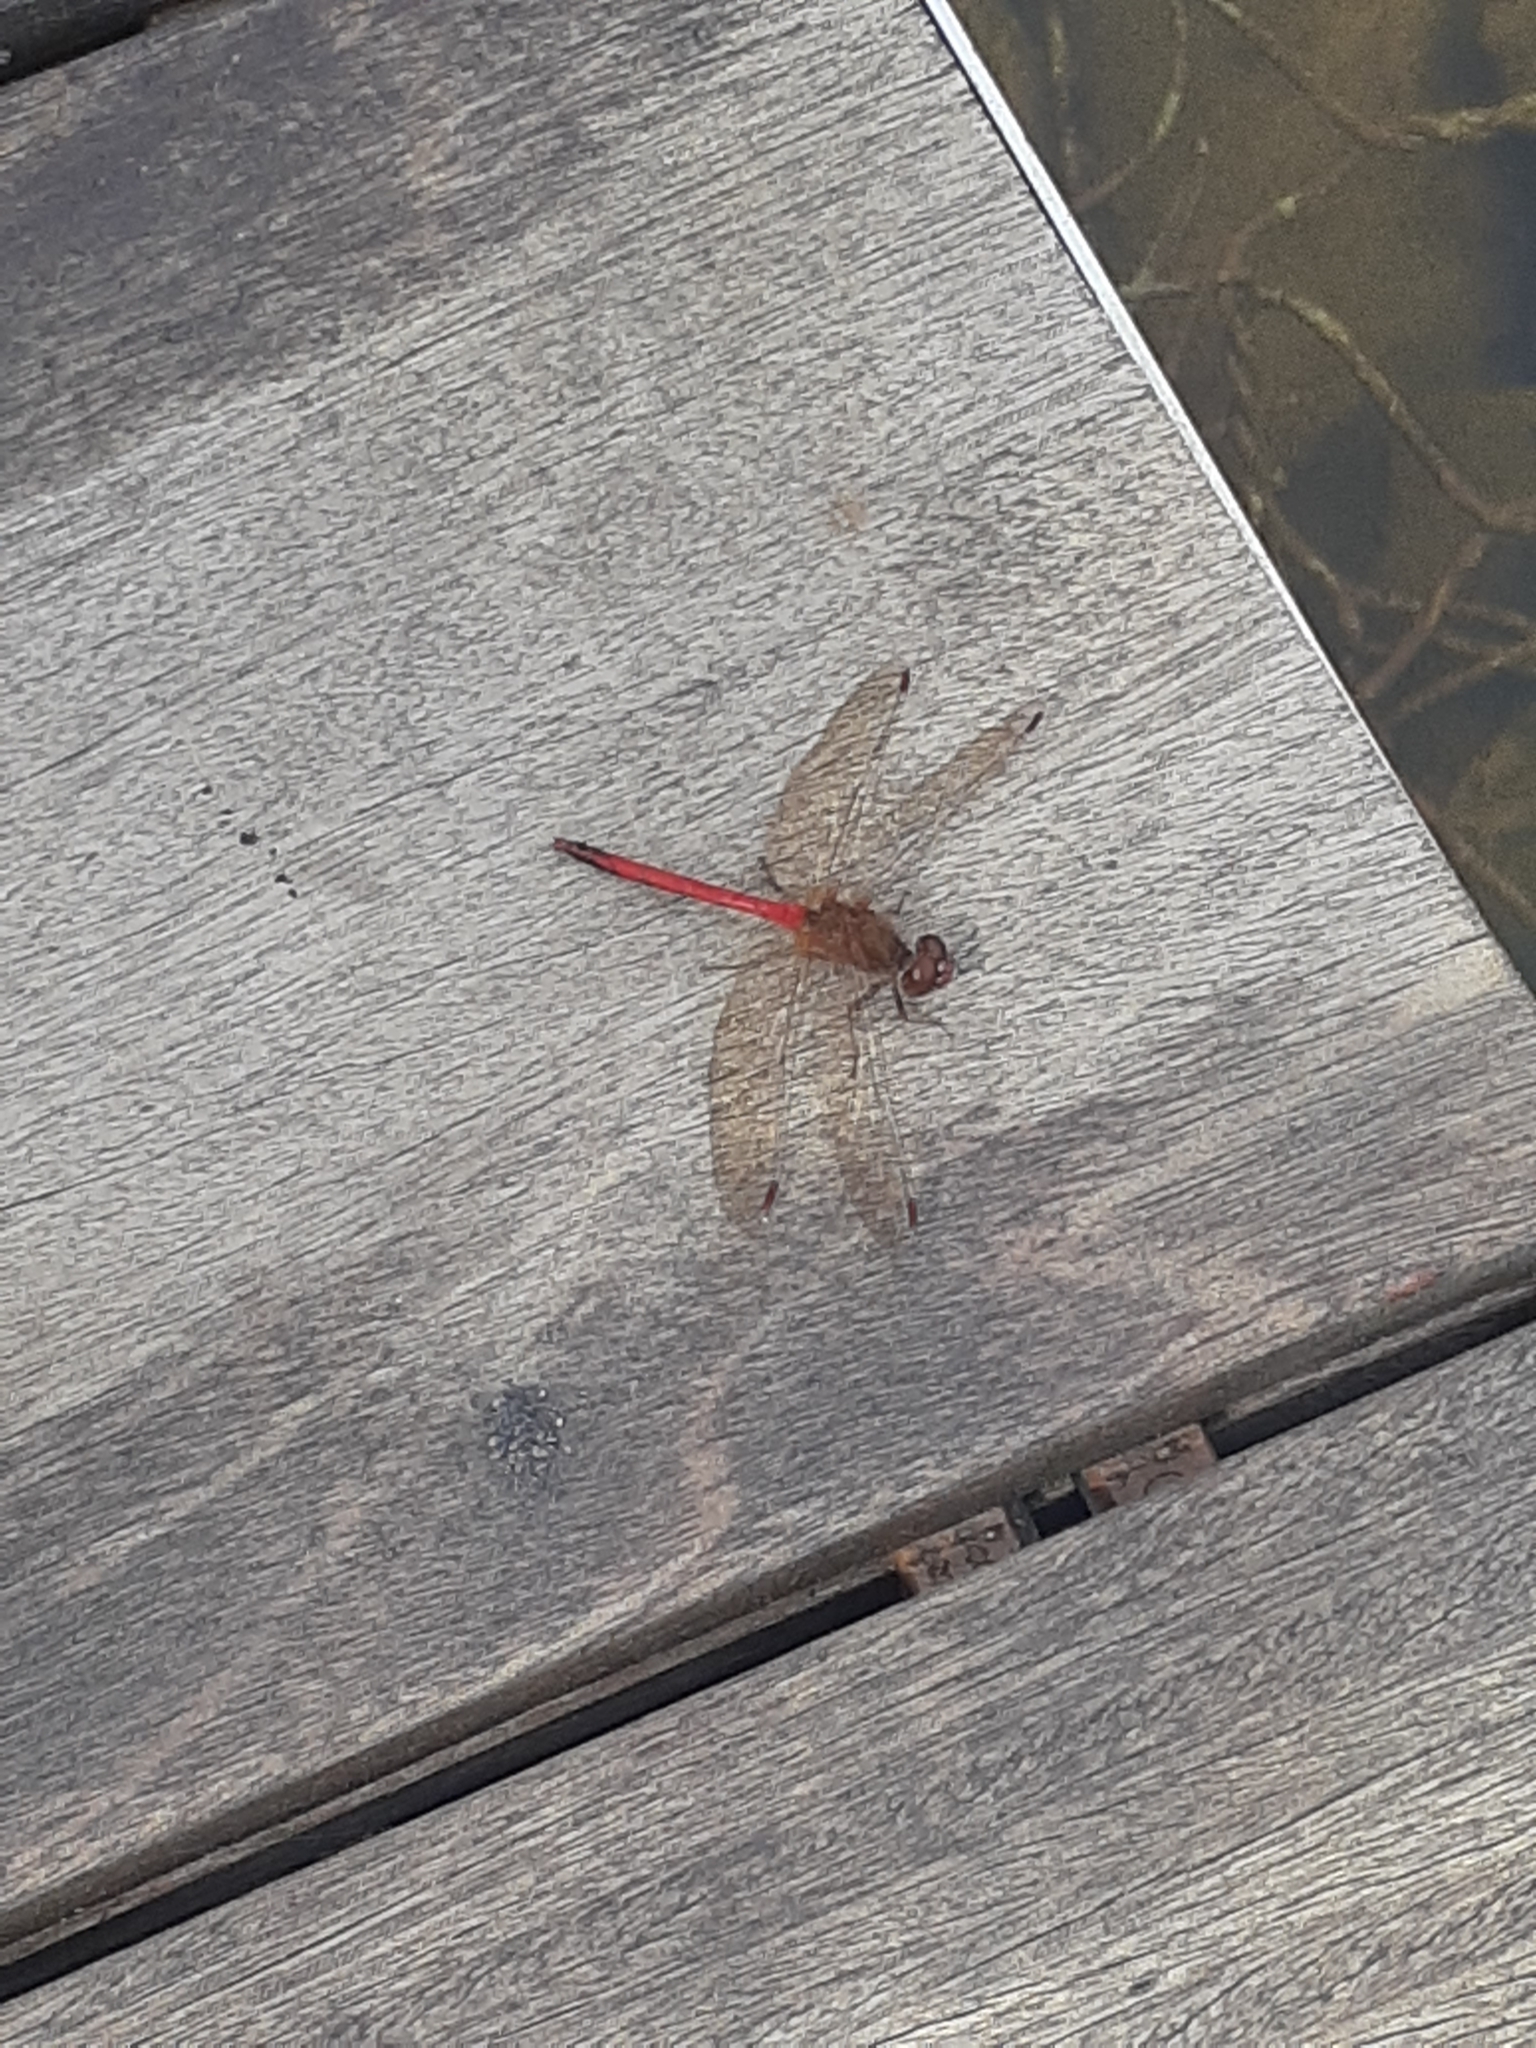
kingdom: Animalia
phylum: Arthropoda
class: Insecta
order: Odonata
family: Libellulidae
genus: Sympetrum
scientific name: Sympetrum vicinum
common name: Autumn meadowhawk
